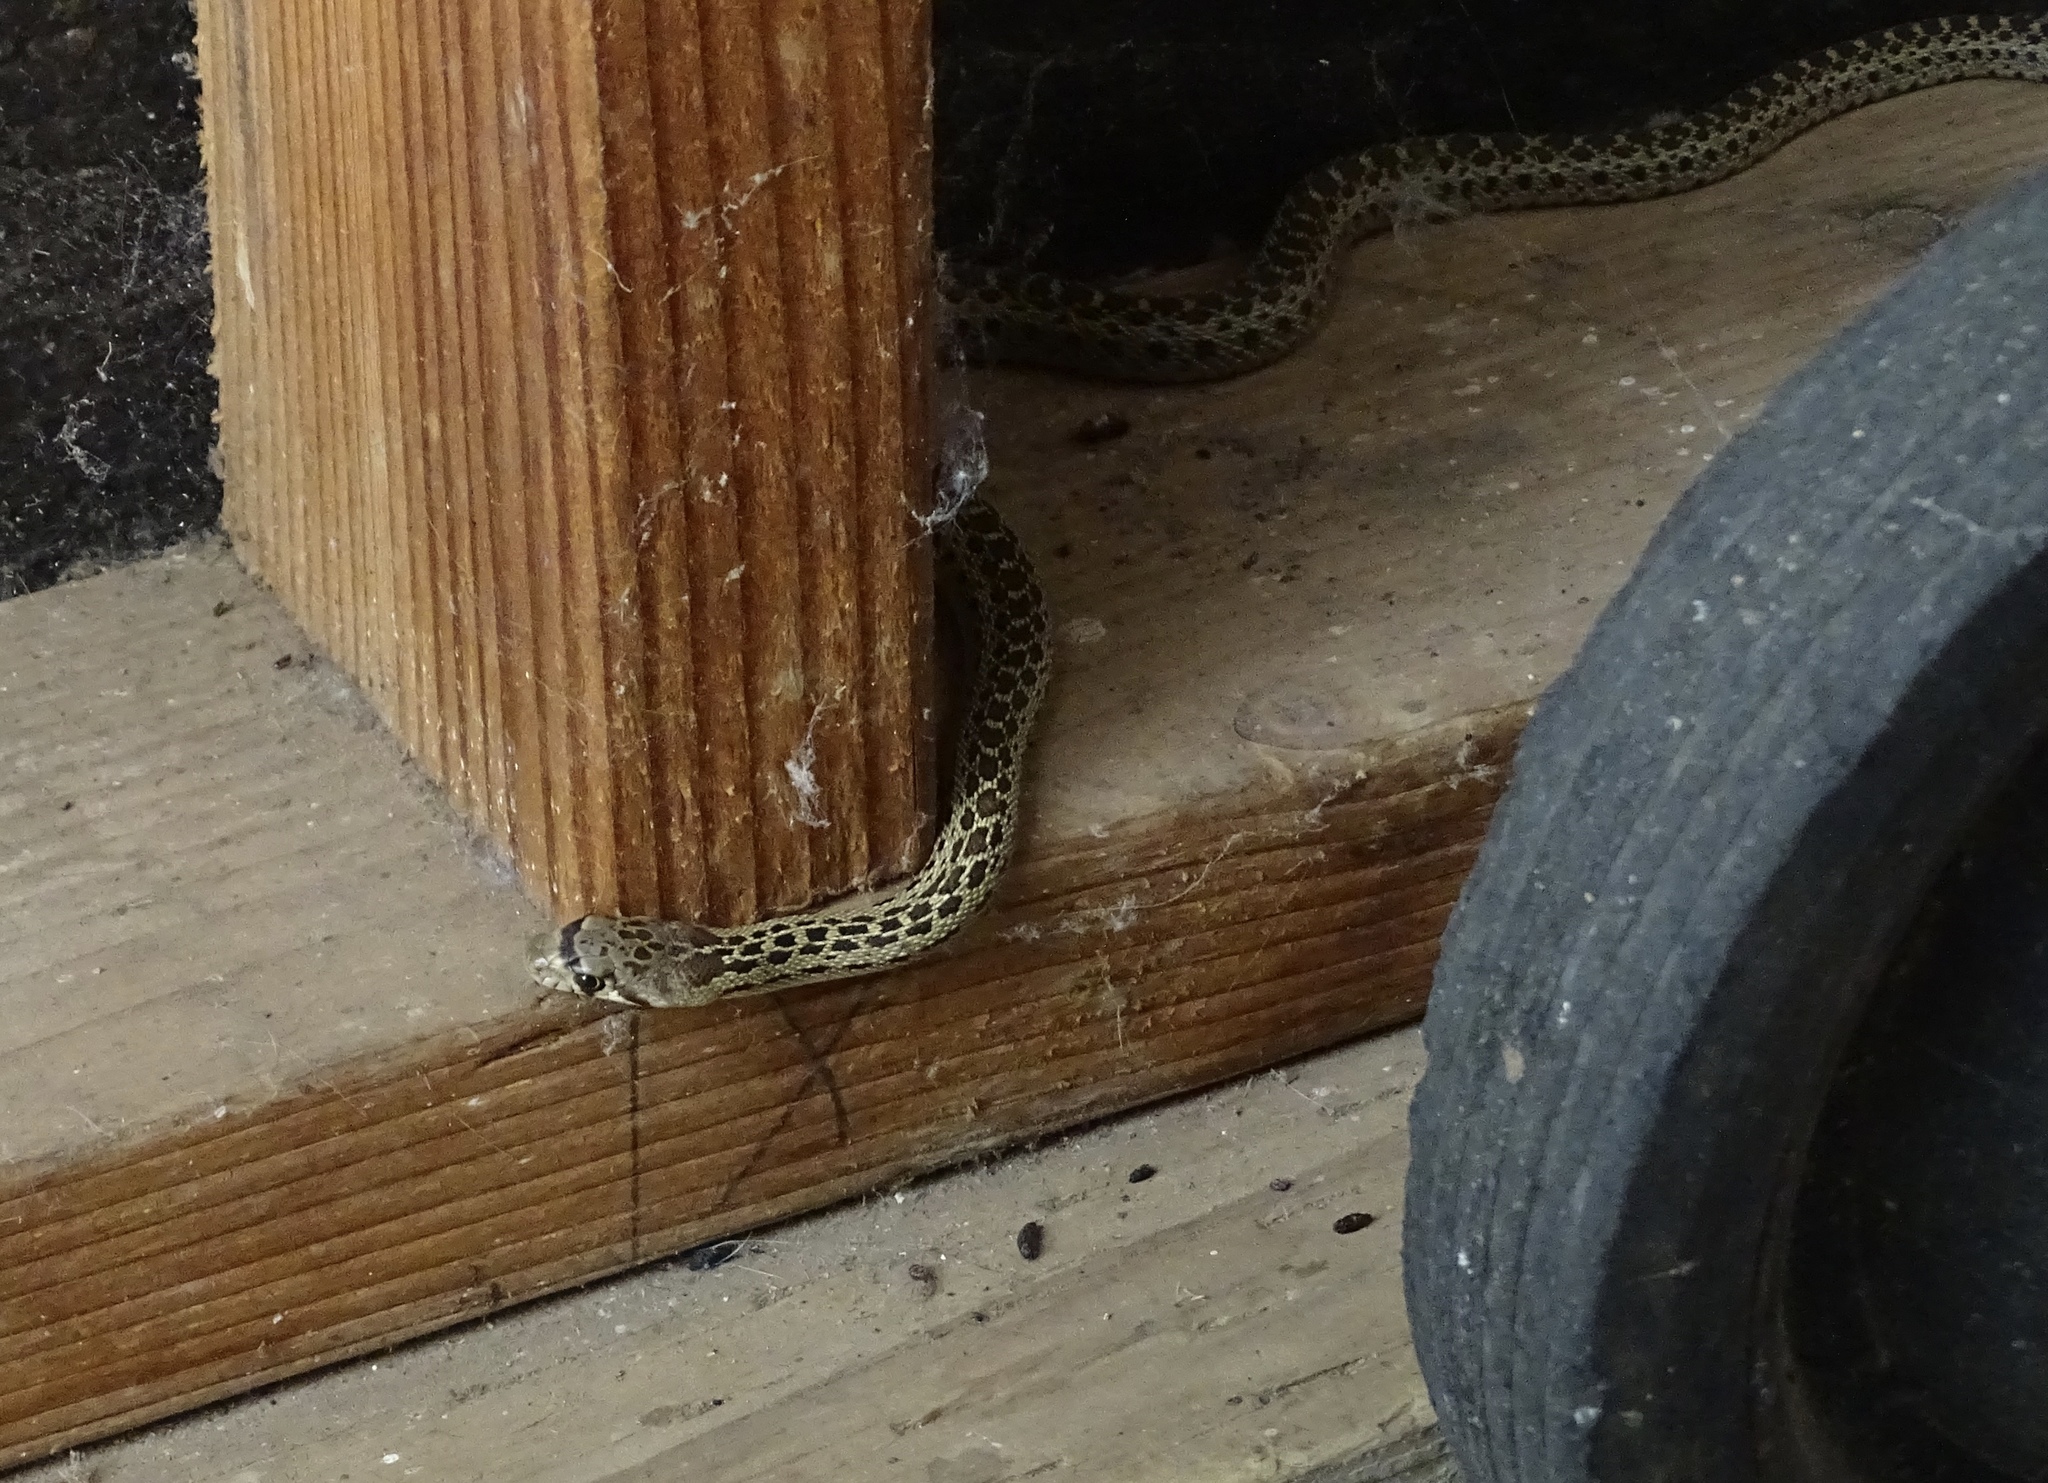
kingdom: Animalia
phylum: Chordata
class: Squamata
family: Colubridae
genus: Pituophis
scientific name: Pituophis catenifer
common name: Gopher snake
